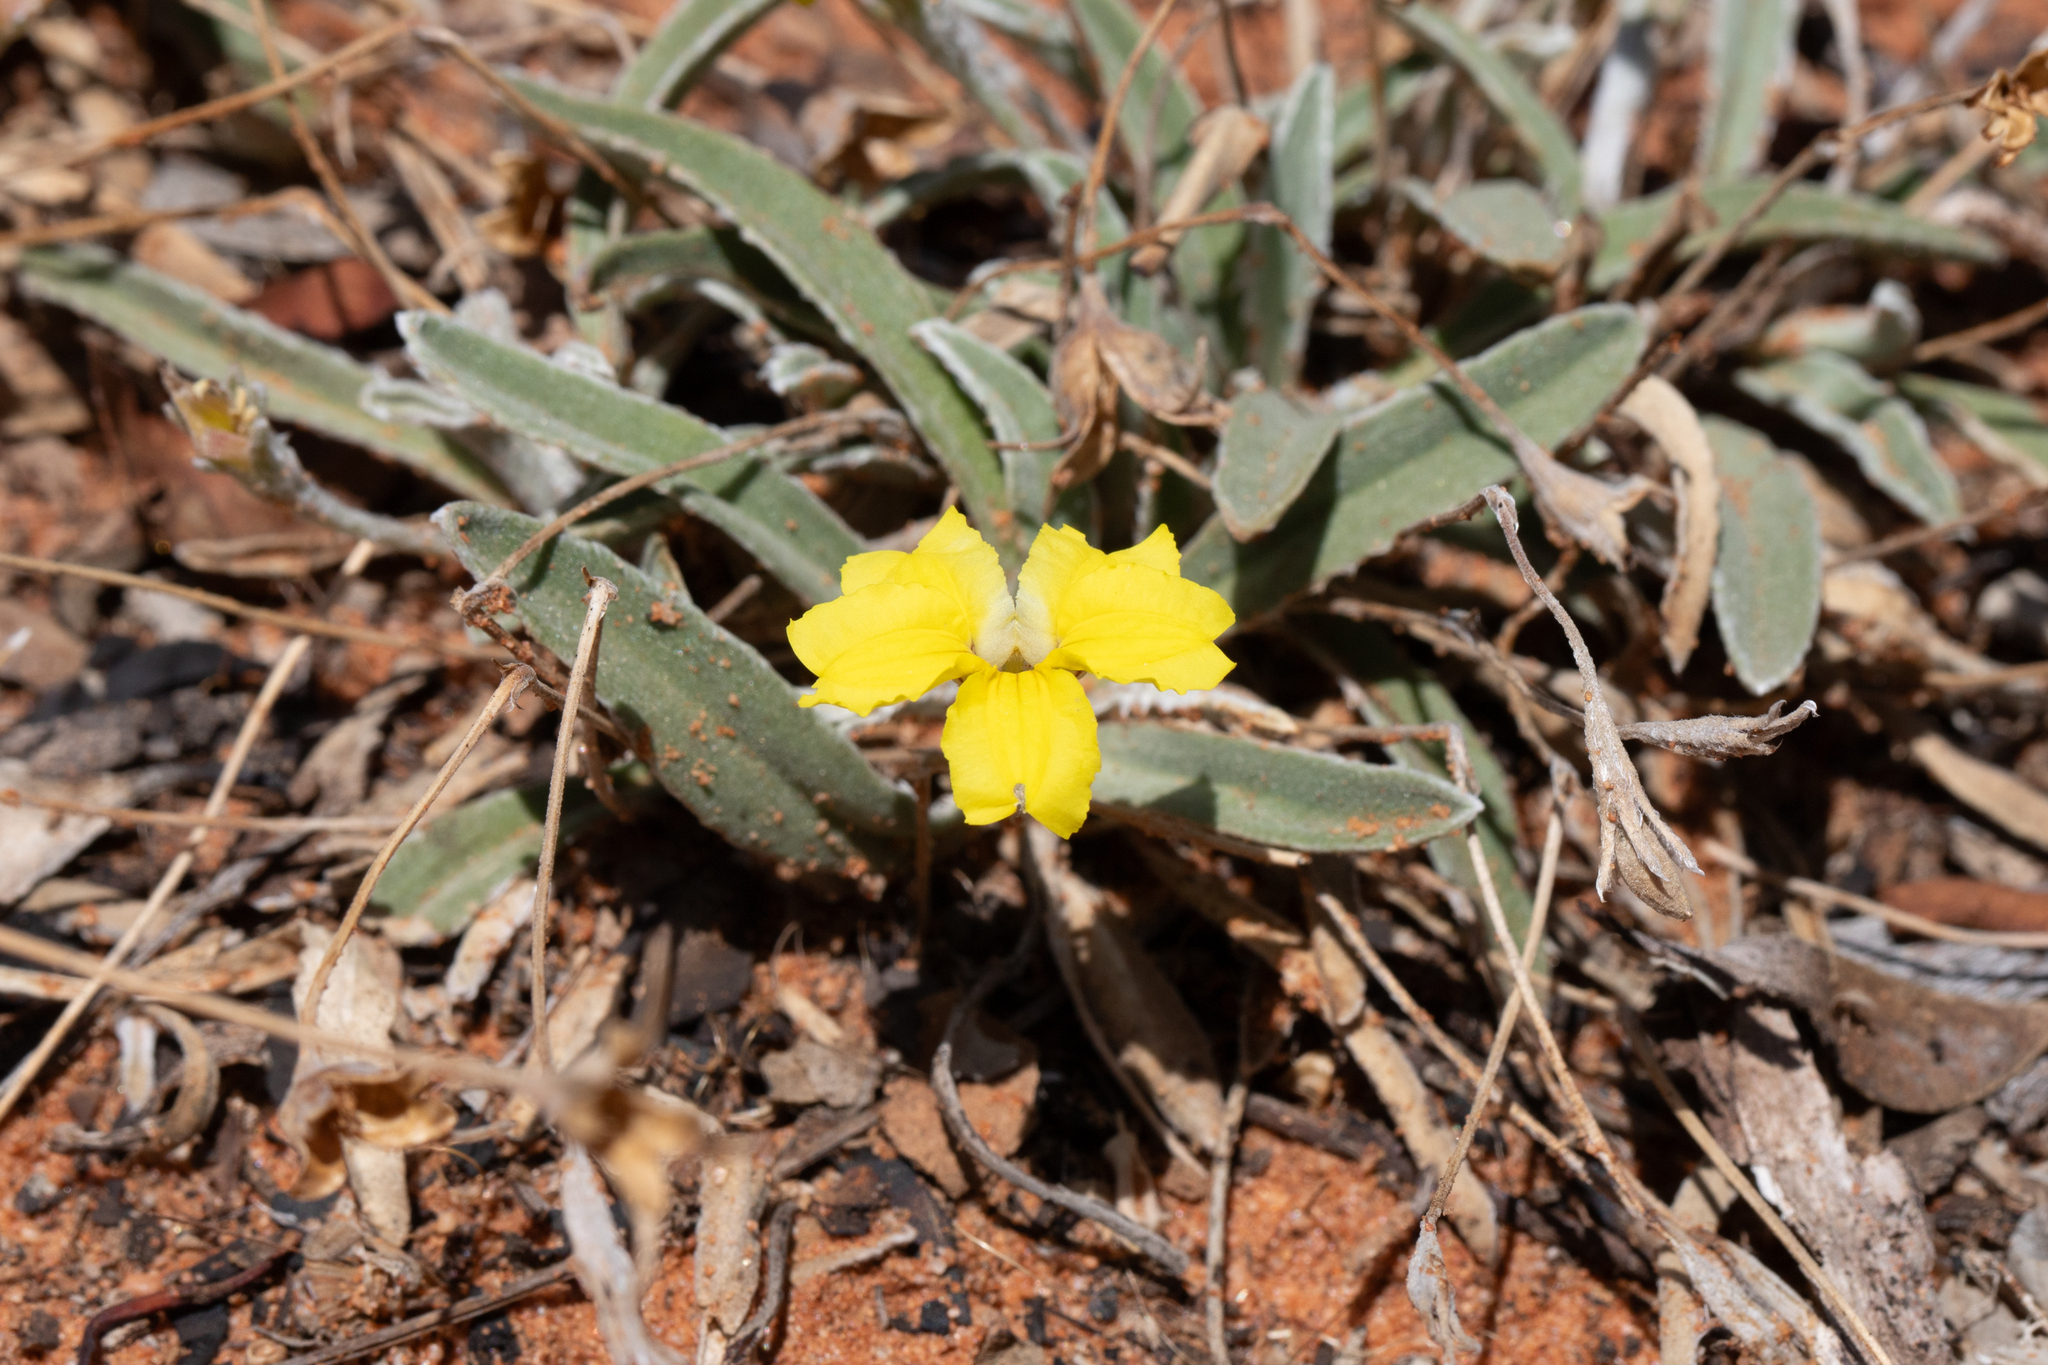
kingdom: Plantae
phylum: Tracheophyta
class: Magnoliopsida
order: Asterales
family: Goodeniaceae
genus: Goodenia
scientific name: Goodenia willisiana
